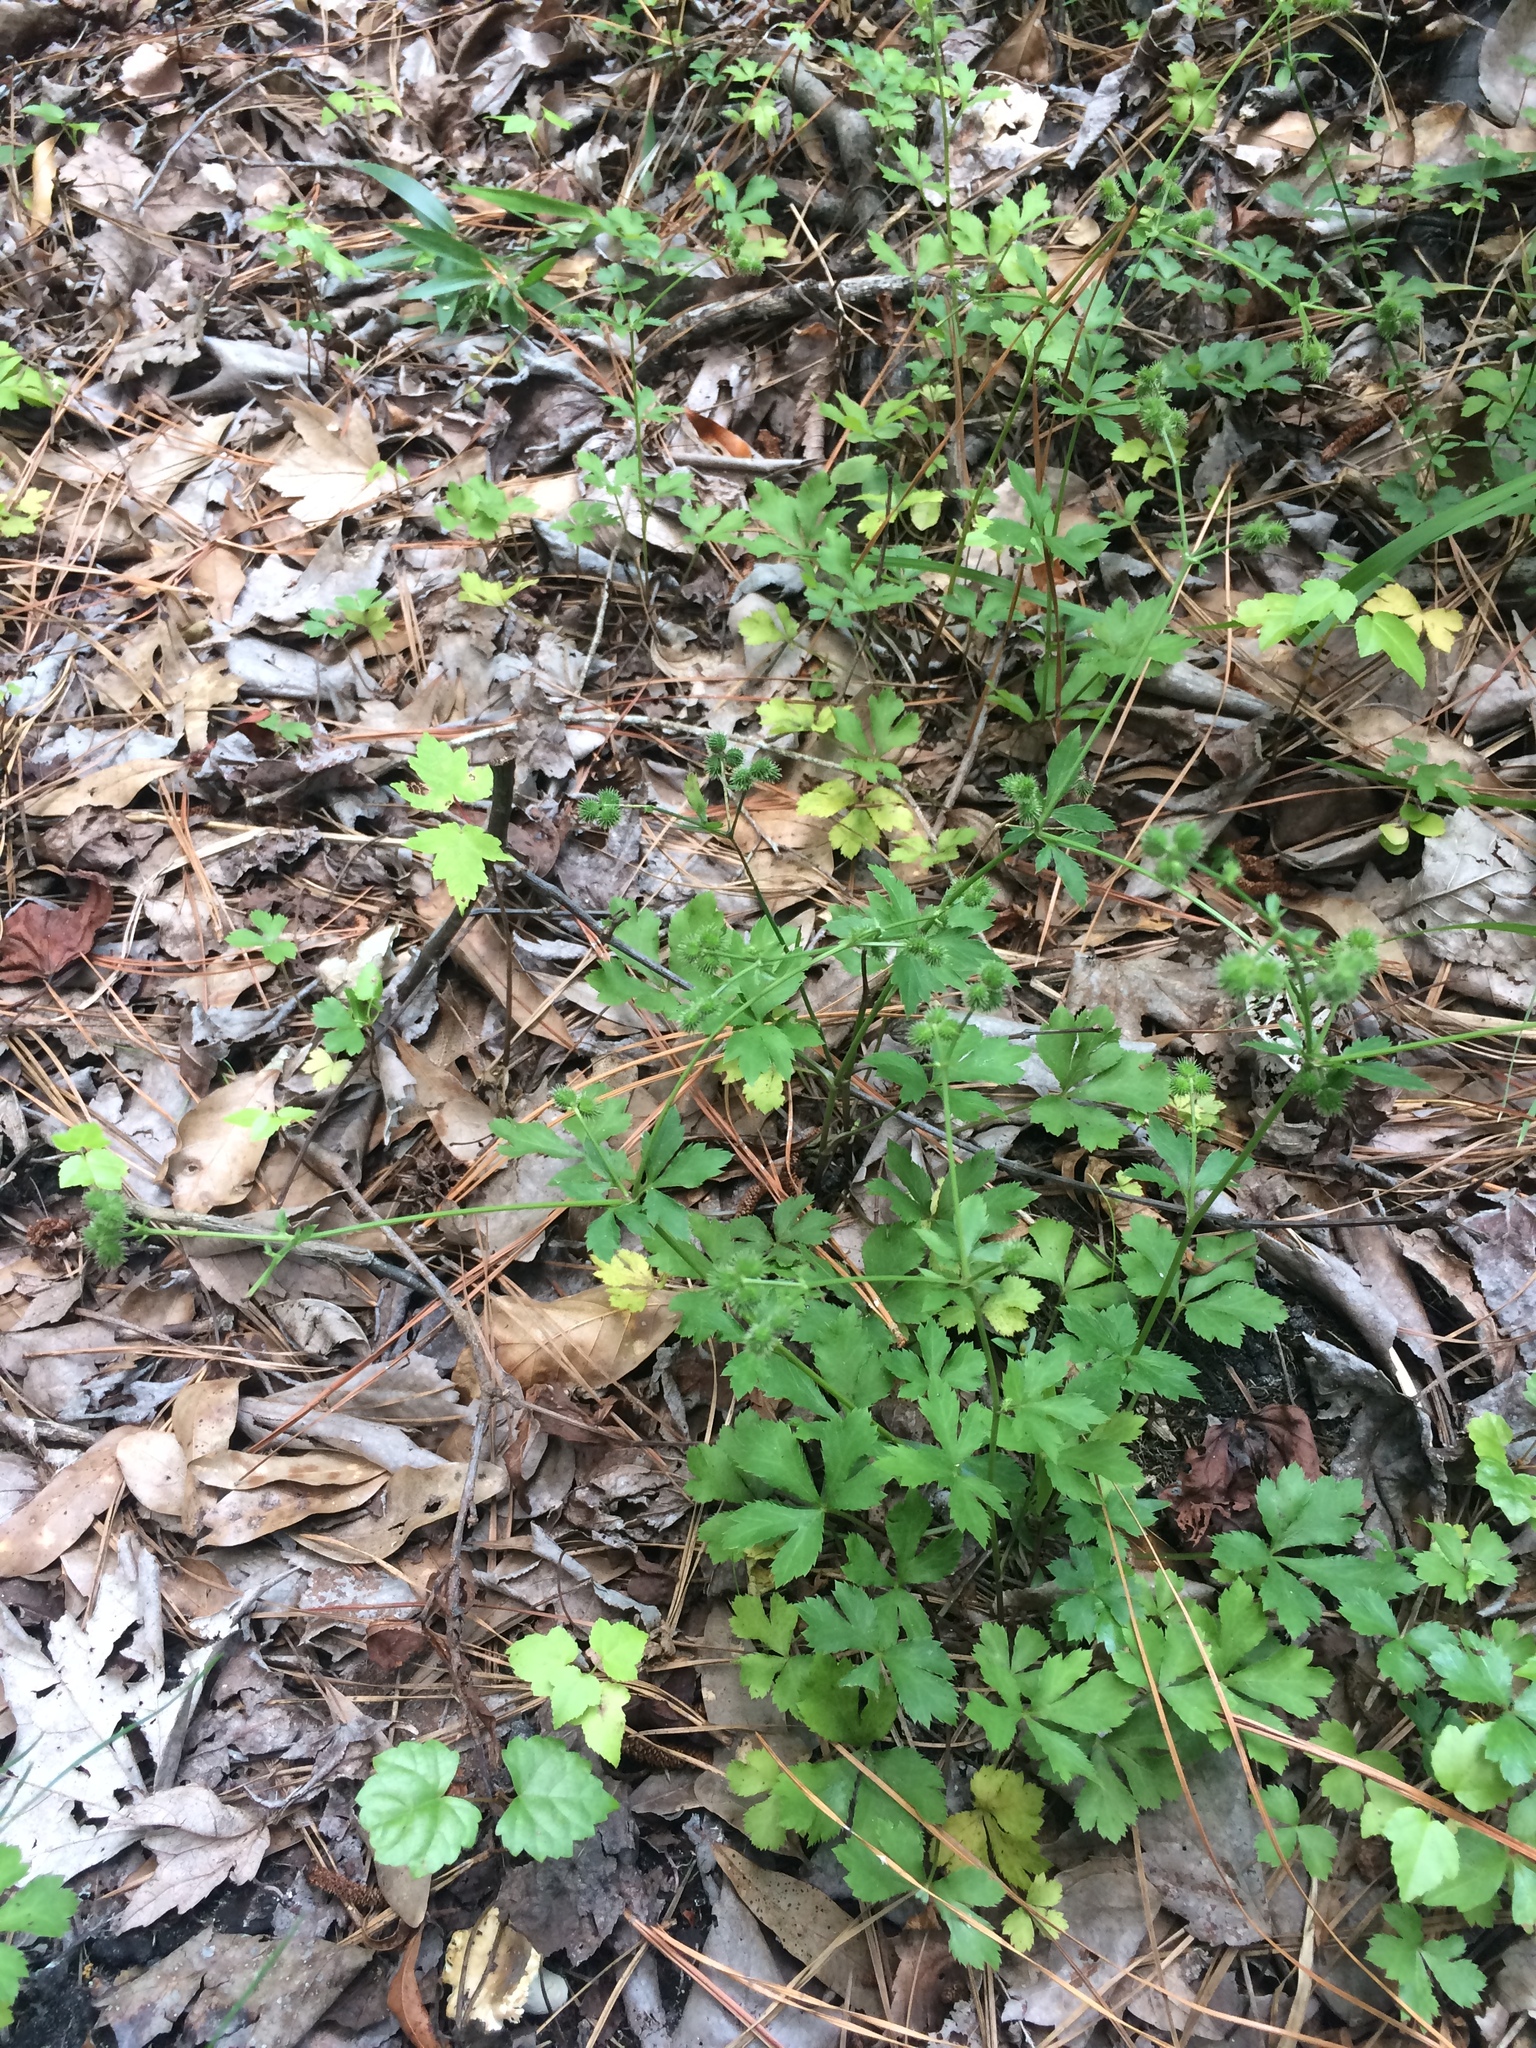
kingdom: Plantae
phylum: Tracheophyta
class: Magnoliopsida
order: Apiales
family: Apiaceae
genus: Sanicula
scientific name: Sanicula canadensis
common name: Canada sanicle
